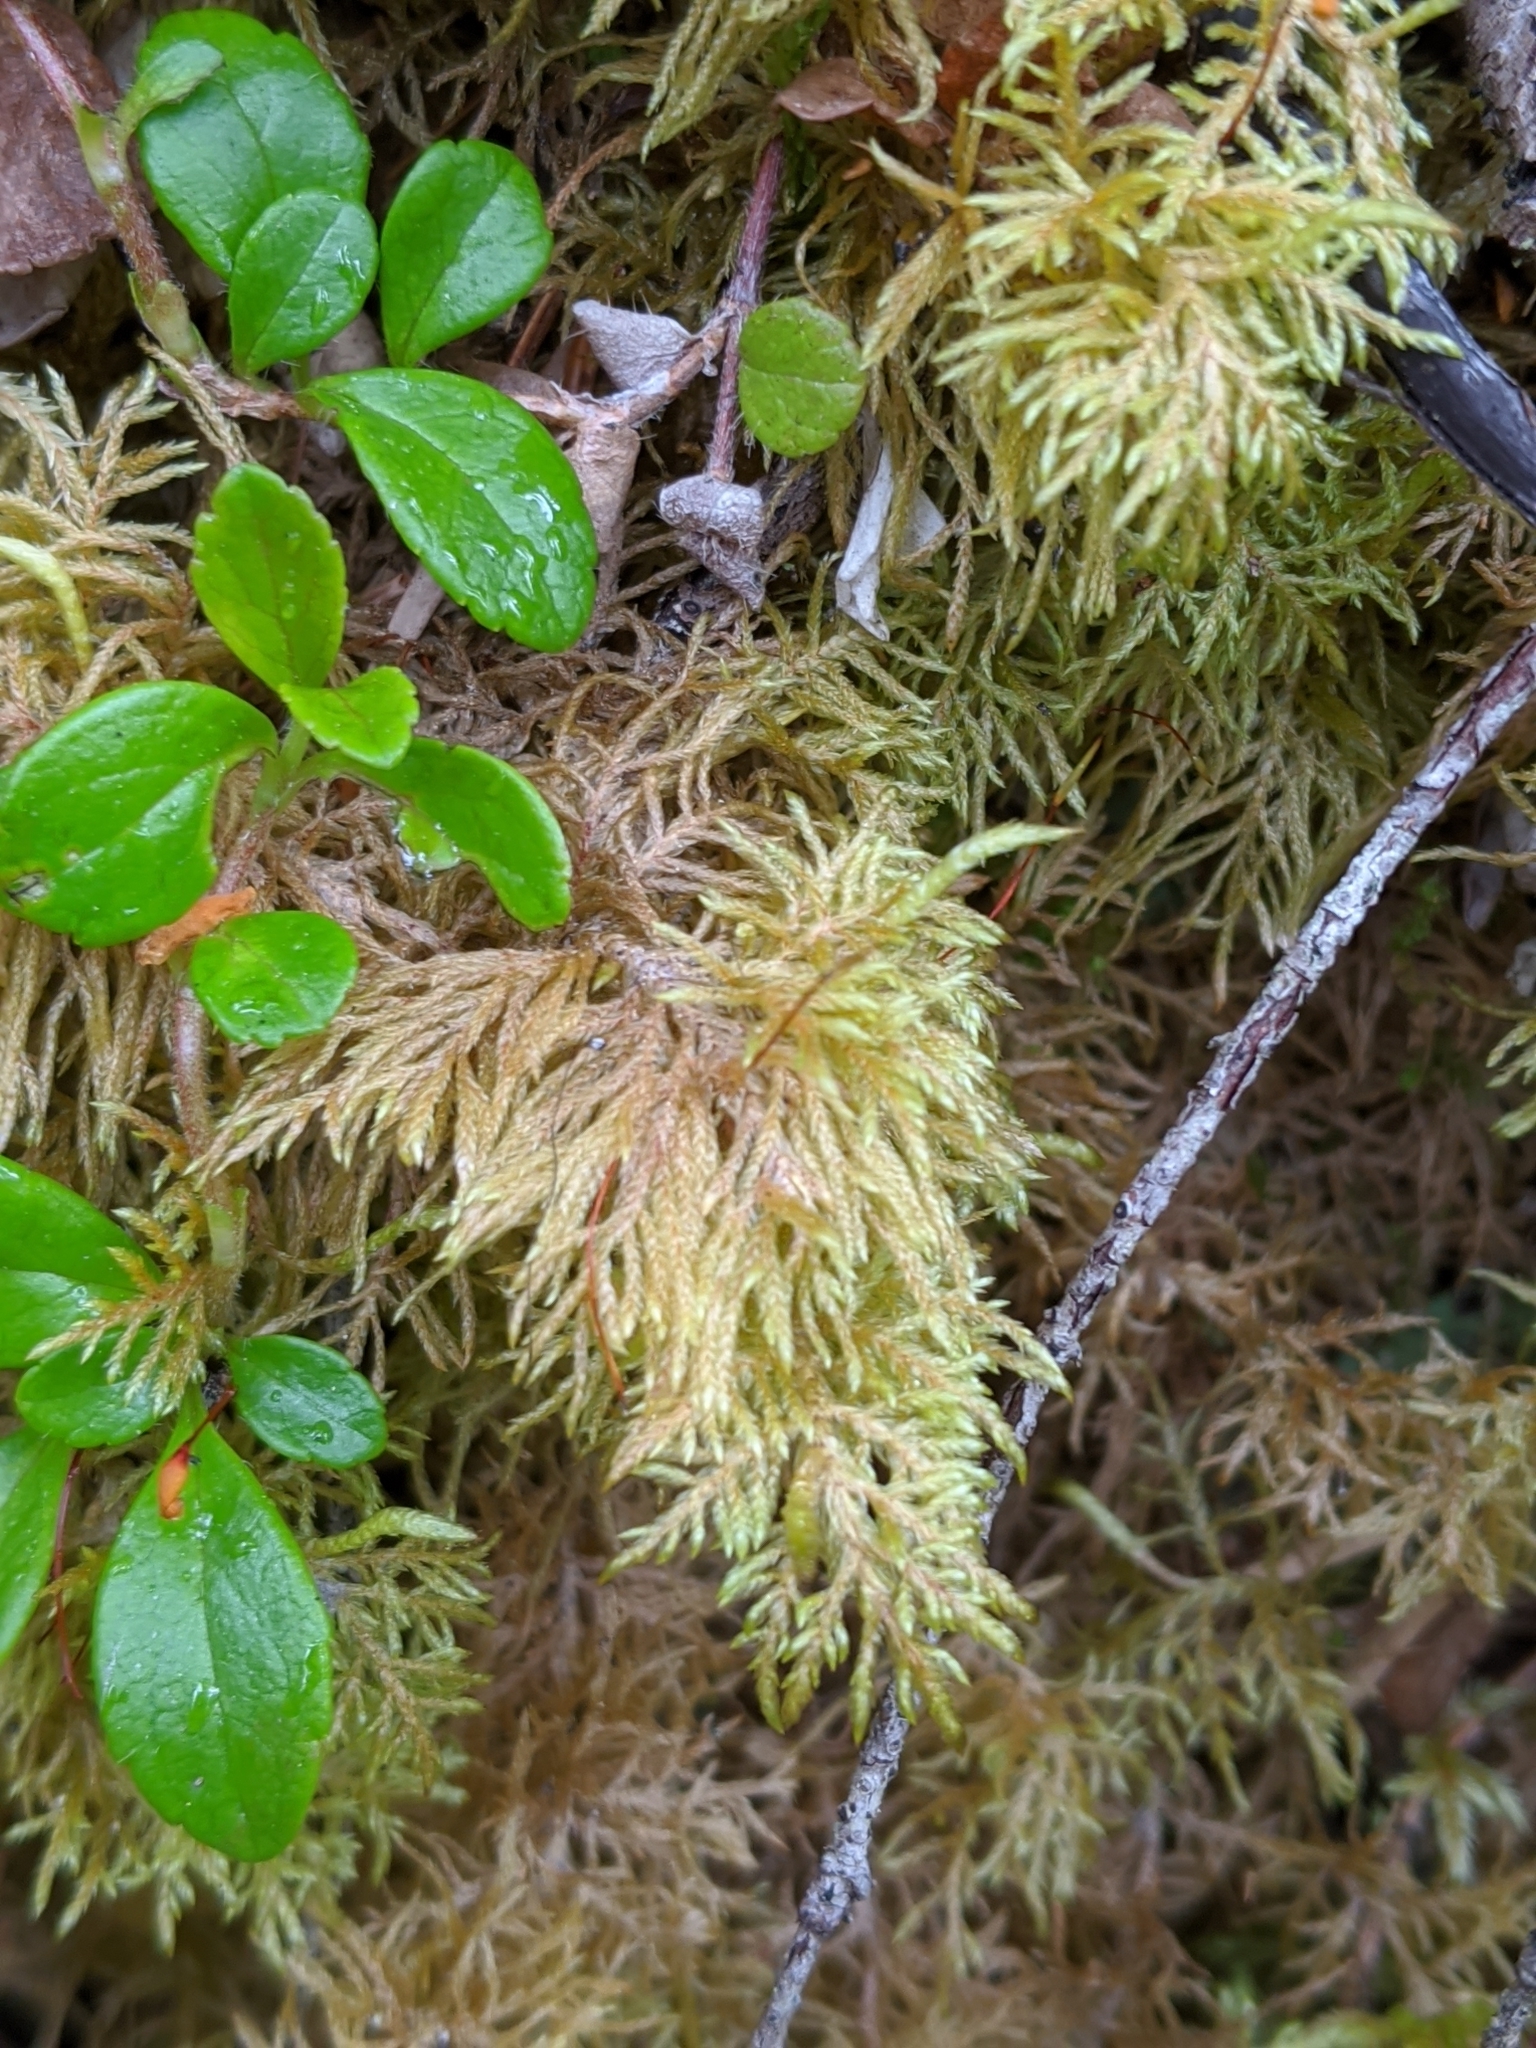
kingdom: Plantae
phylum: Bryophyta
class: Bryopsida
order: Hypnales
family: Hylocomiaceae
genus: Hylocomium
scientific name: Hylocomium splendens
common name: Stairstep moss
